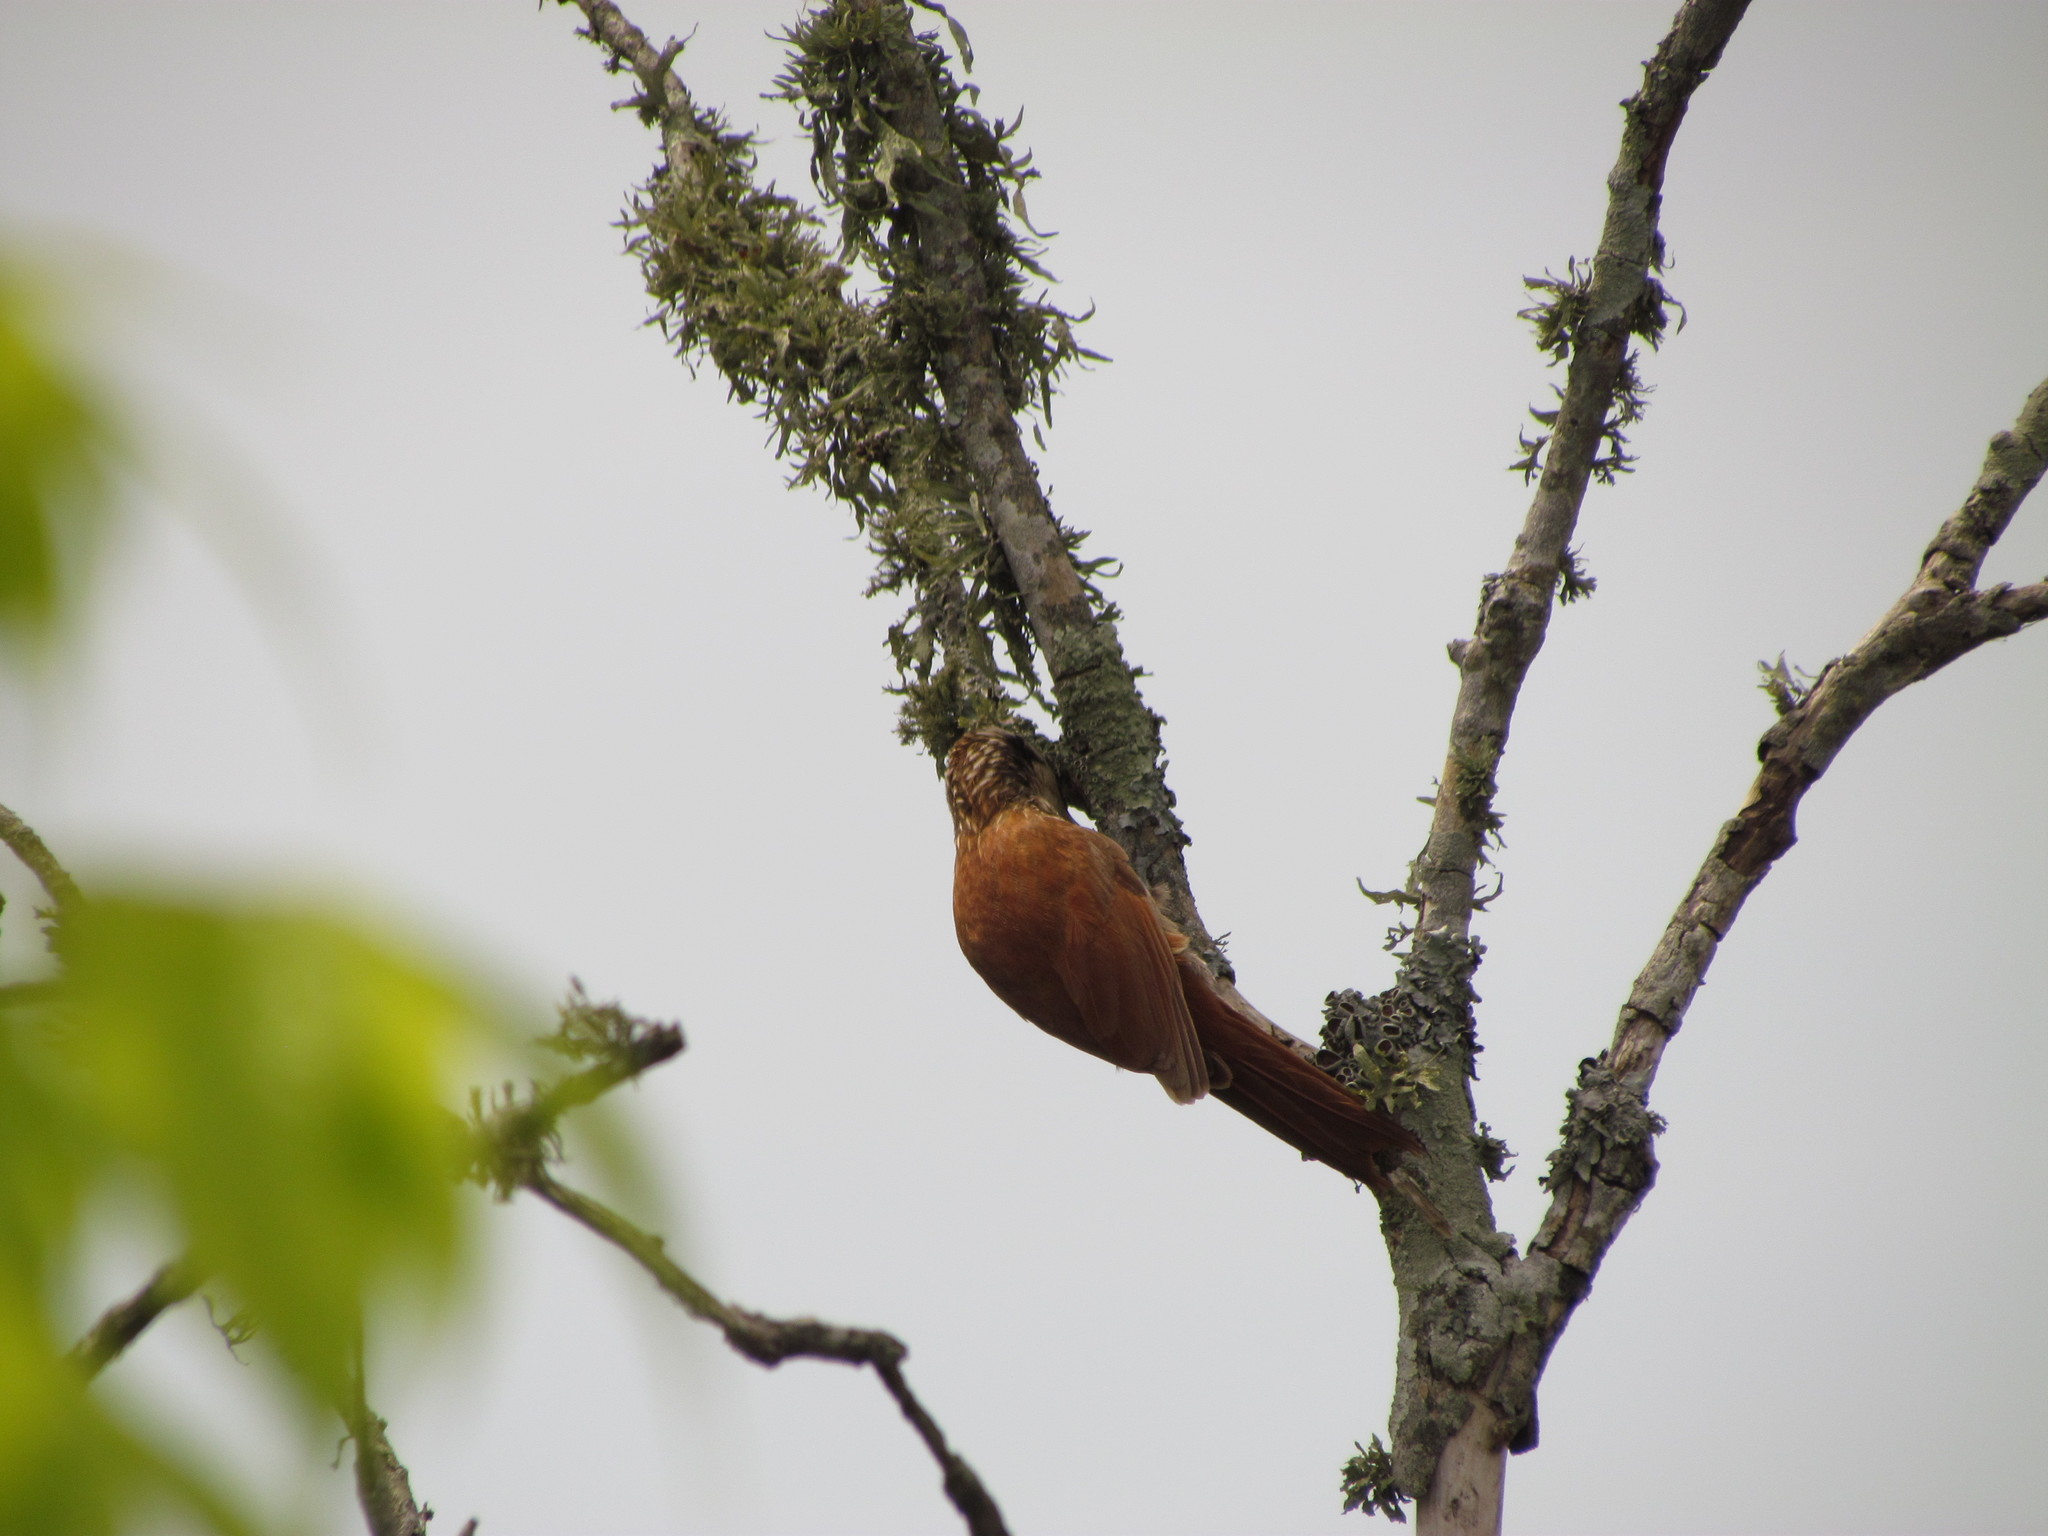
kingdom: Animalia
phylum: Chordata
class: Aves
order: Passeriformes
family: Furnariidae
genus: Lepidocolaptes
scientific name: Lepidocolaptes angustirostris
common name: Narrow-billed woodcreeper
